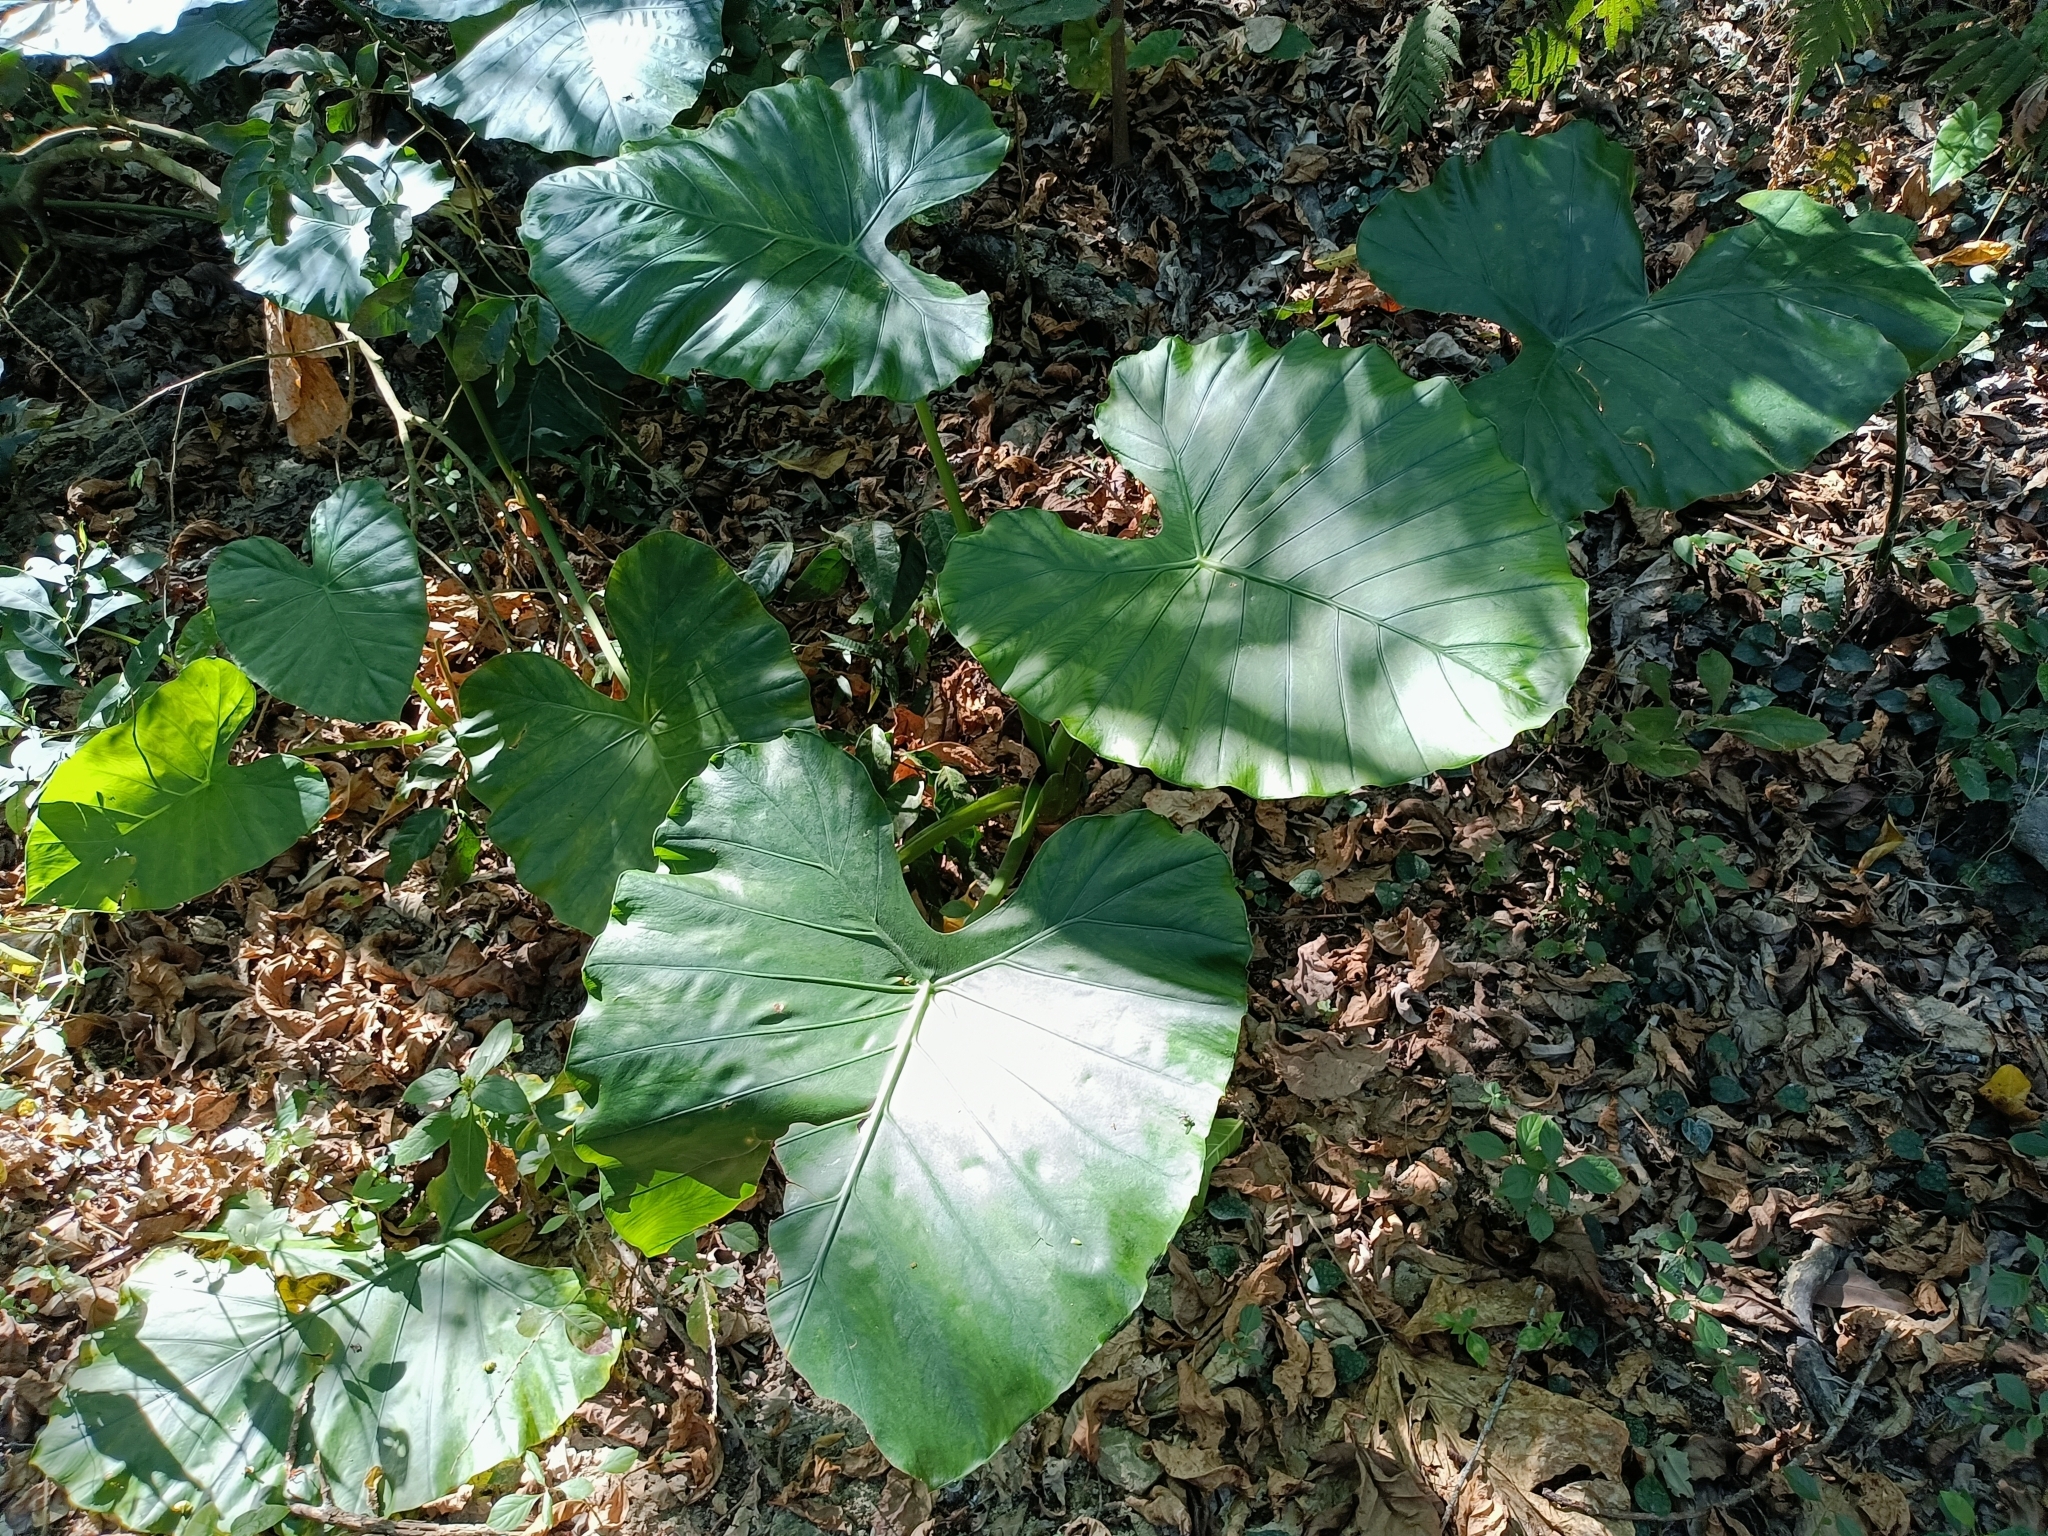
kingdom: Plantae
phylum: Tracheophyta
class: Liliopsida
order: Alismatales
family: Araceae
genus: Alocasia
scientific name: Alocasia odora
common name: Asian taro
